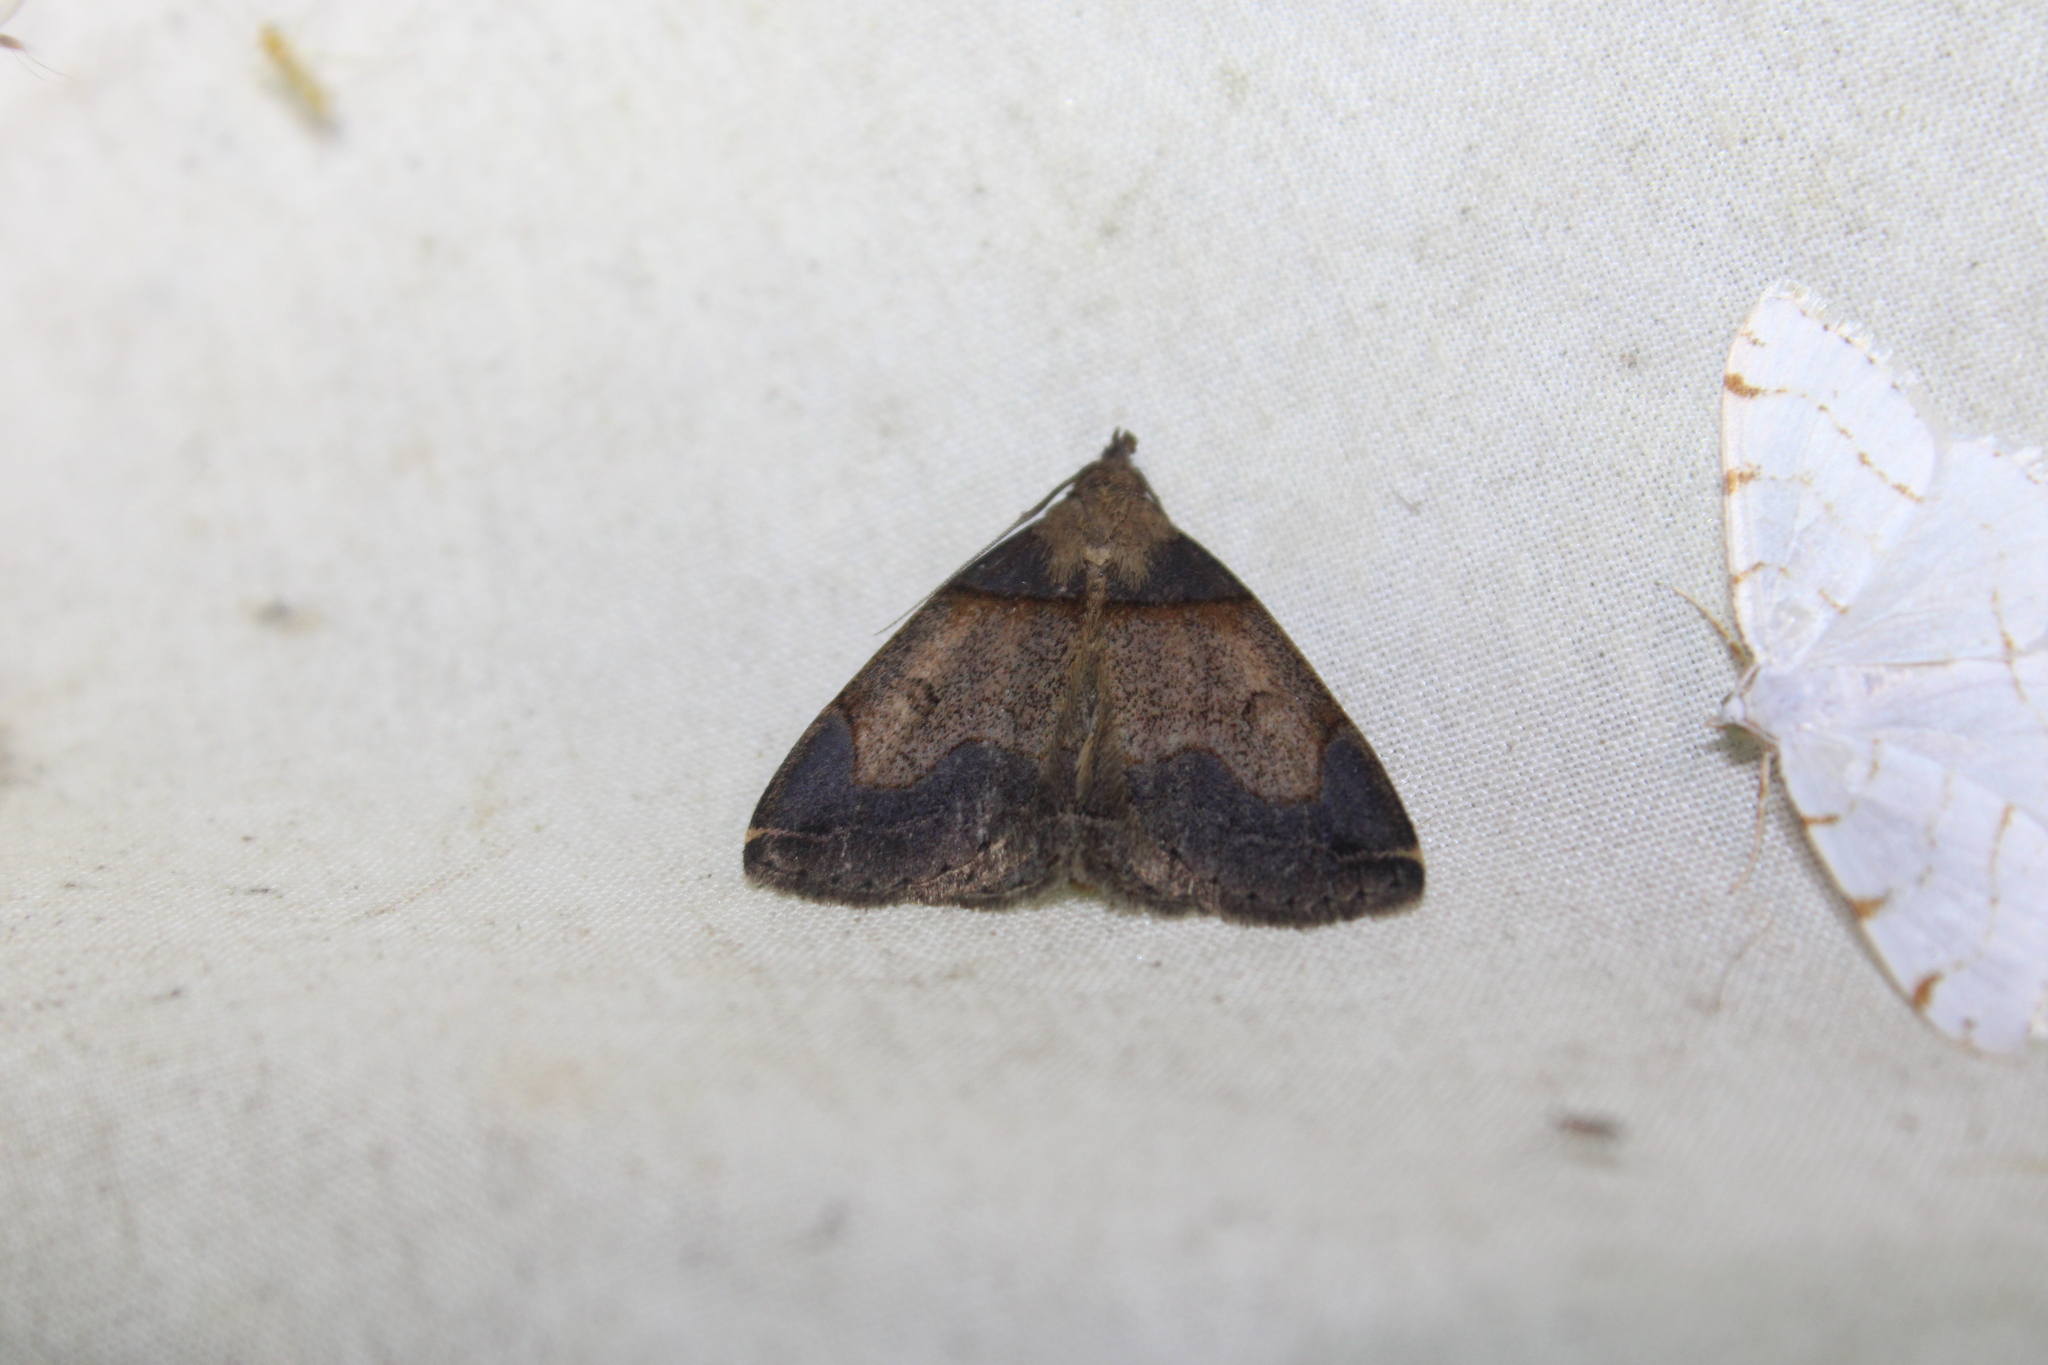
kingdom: Animalia
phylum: Arthropoda
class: Insecta
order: Lepidoptera
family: Erebidae
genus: Zanclognatha
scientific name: Zanclognatha laevigata
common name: Variable fan-foot
